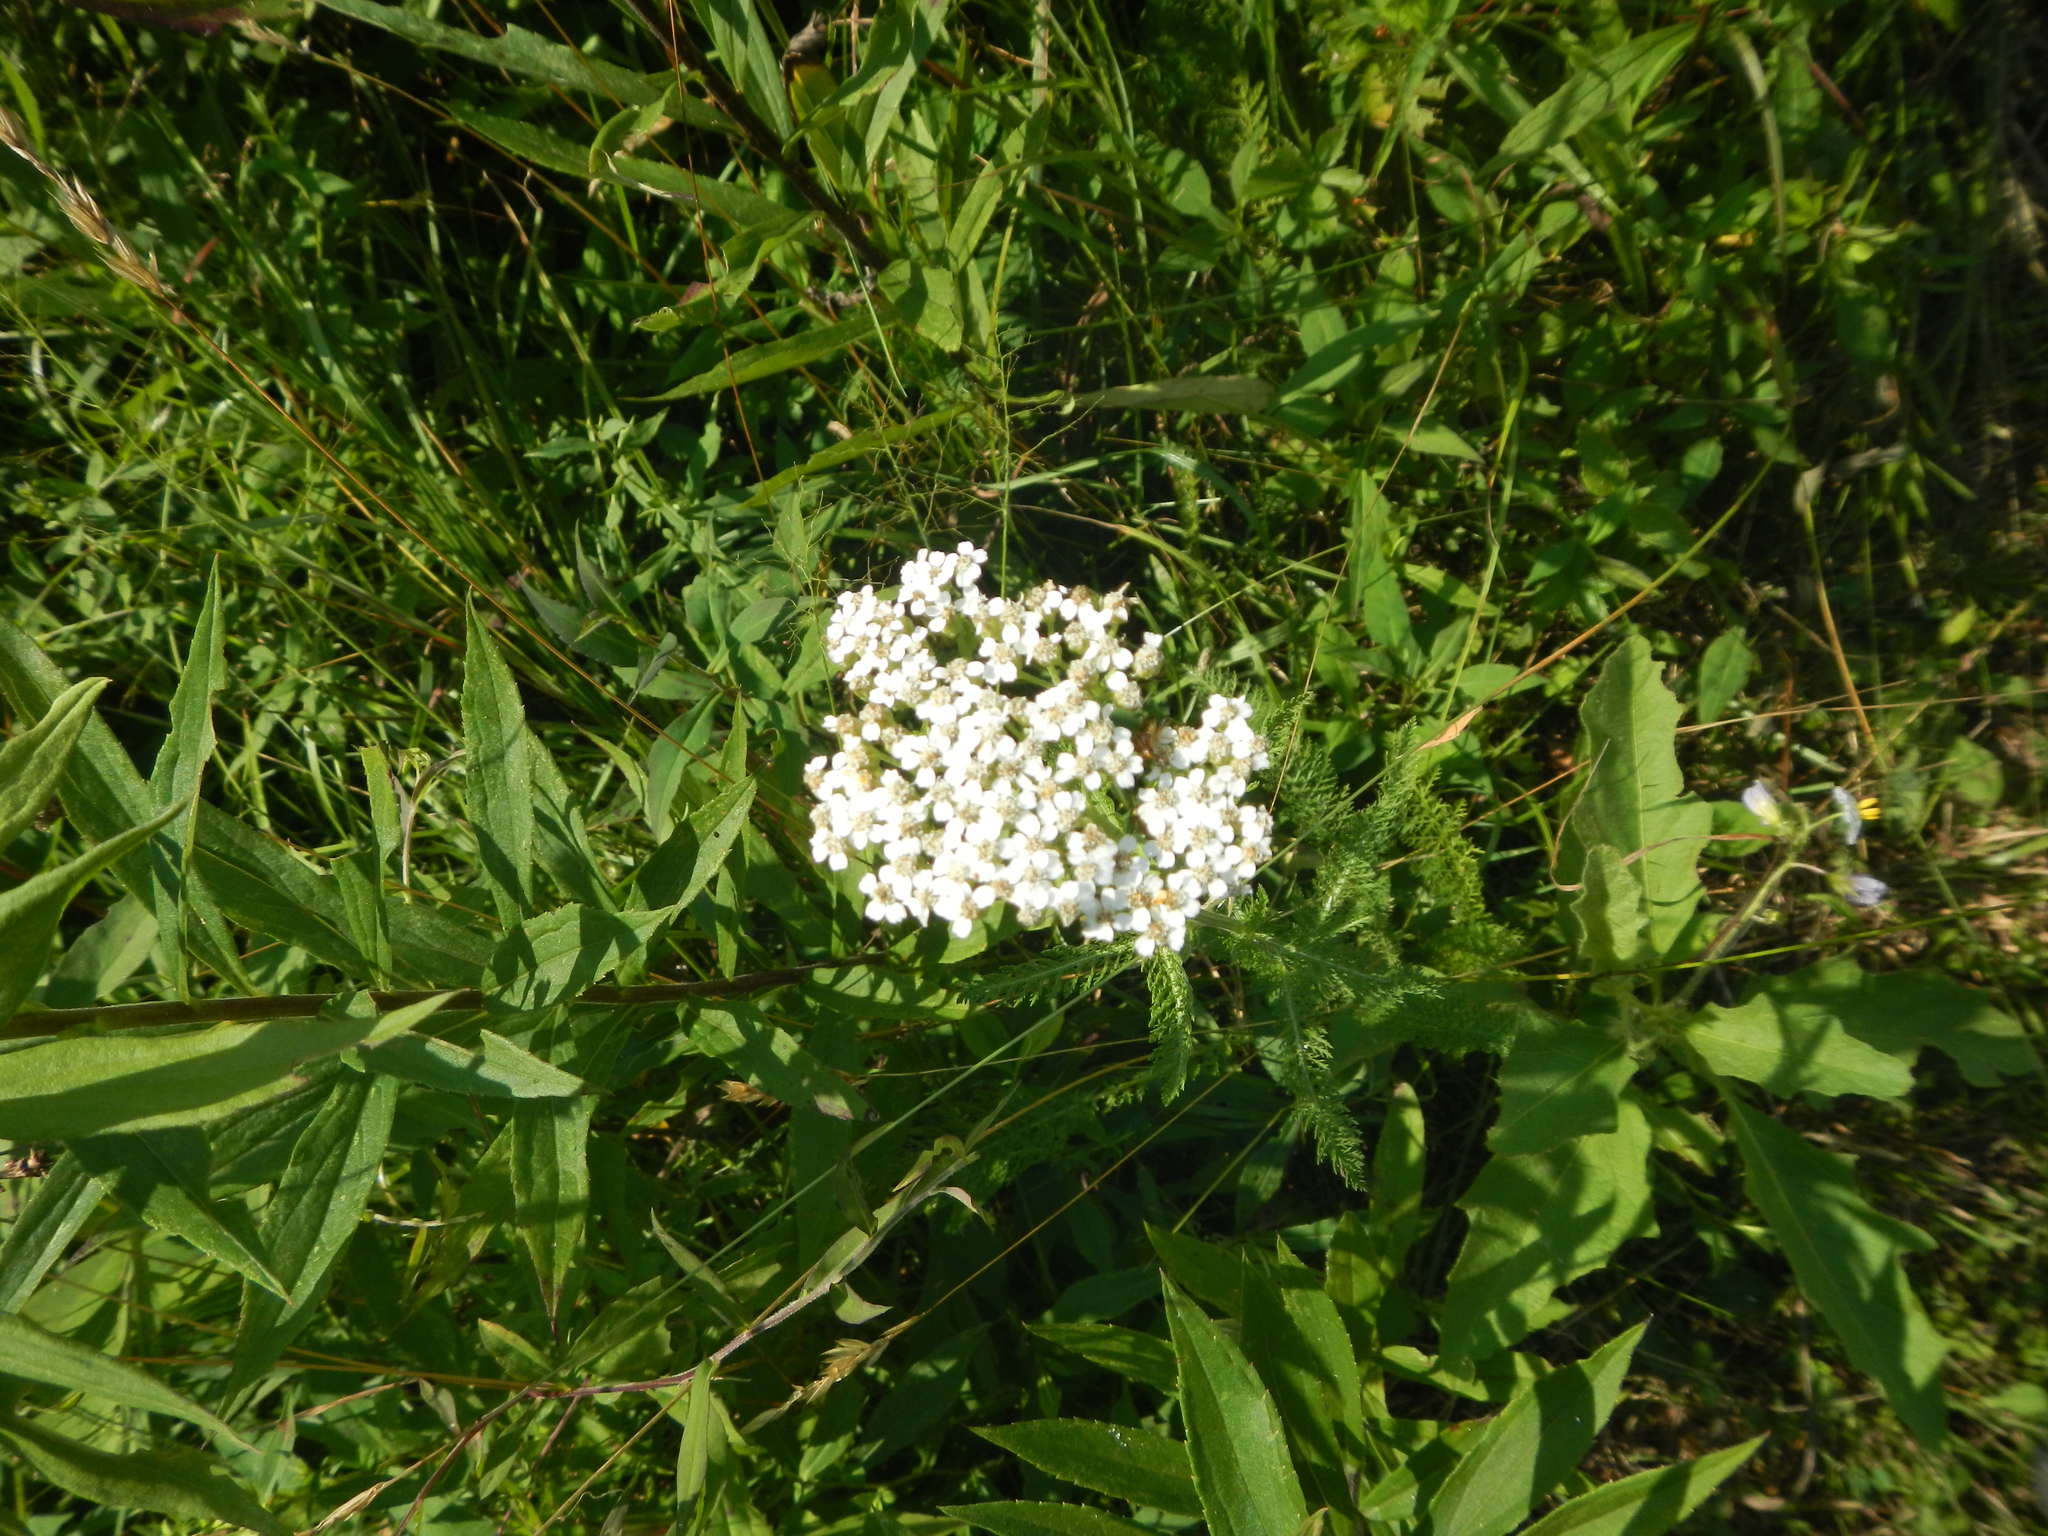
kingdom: Plantae
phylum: Tracheophyta
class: Magnoliopsida
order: Asterales
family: Asteraceae
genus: Achillea
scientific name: Achillea millefolium
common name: Yarrow
